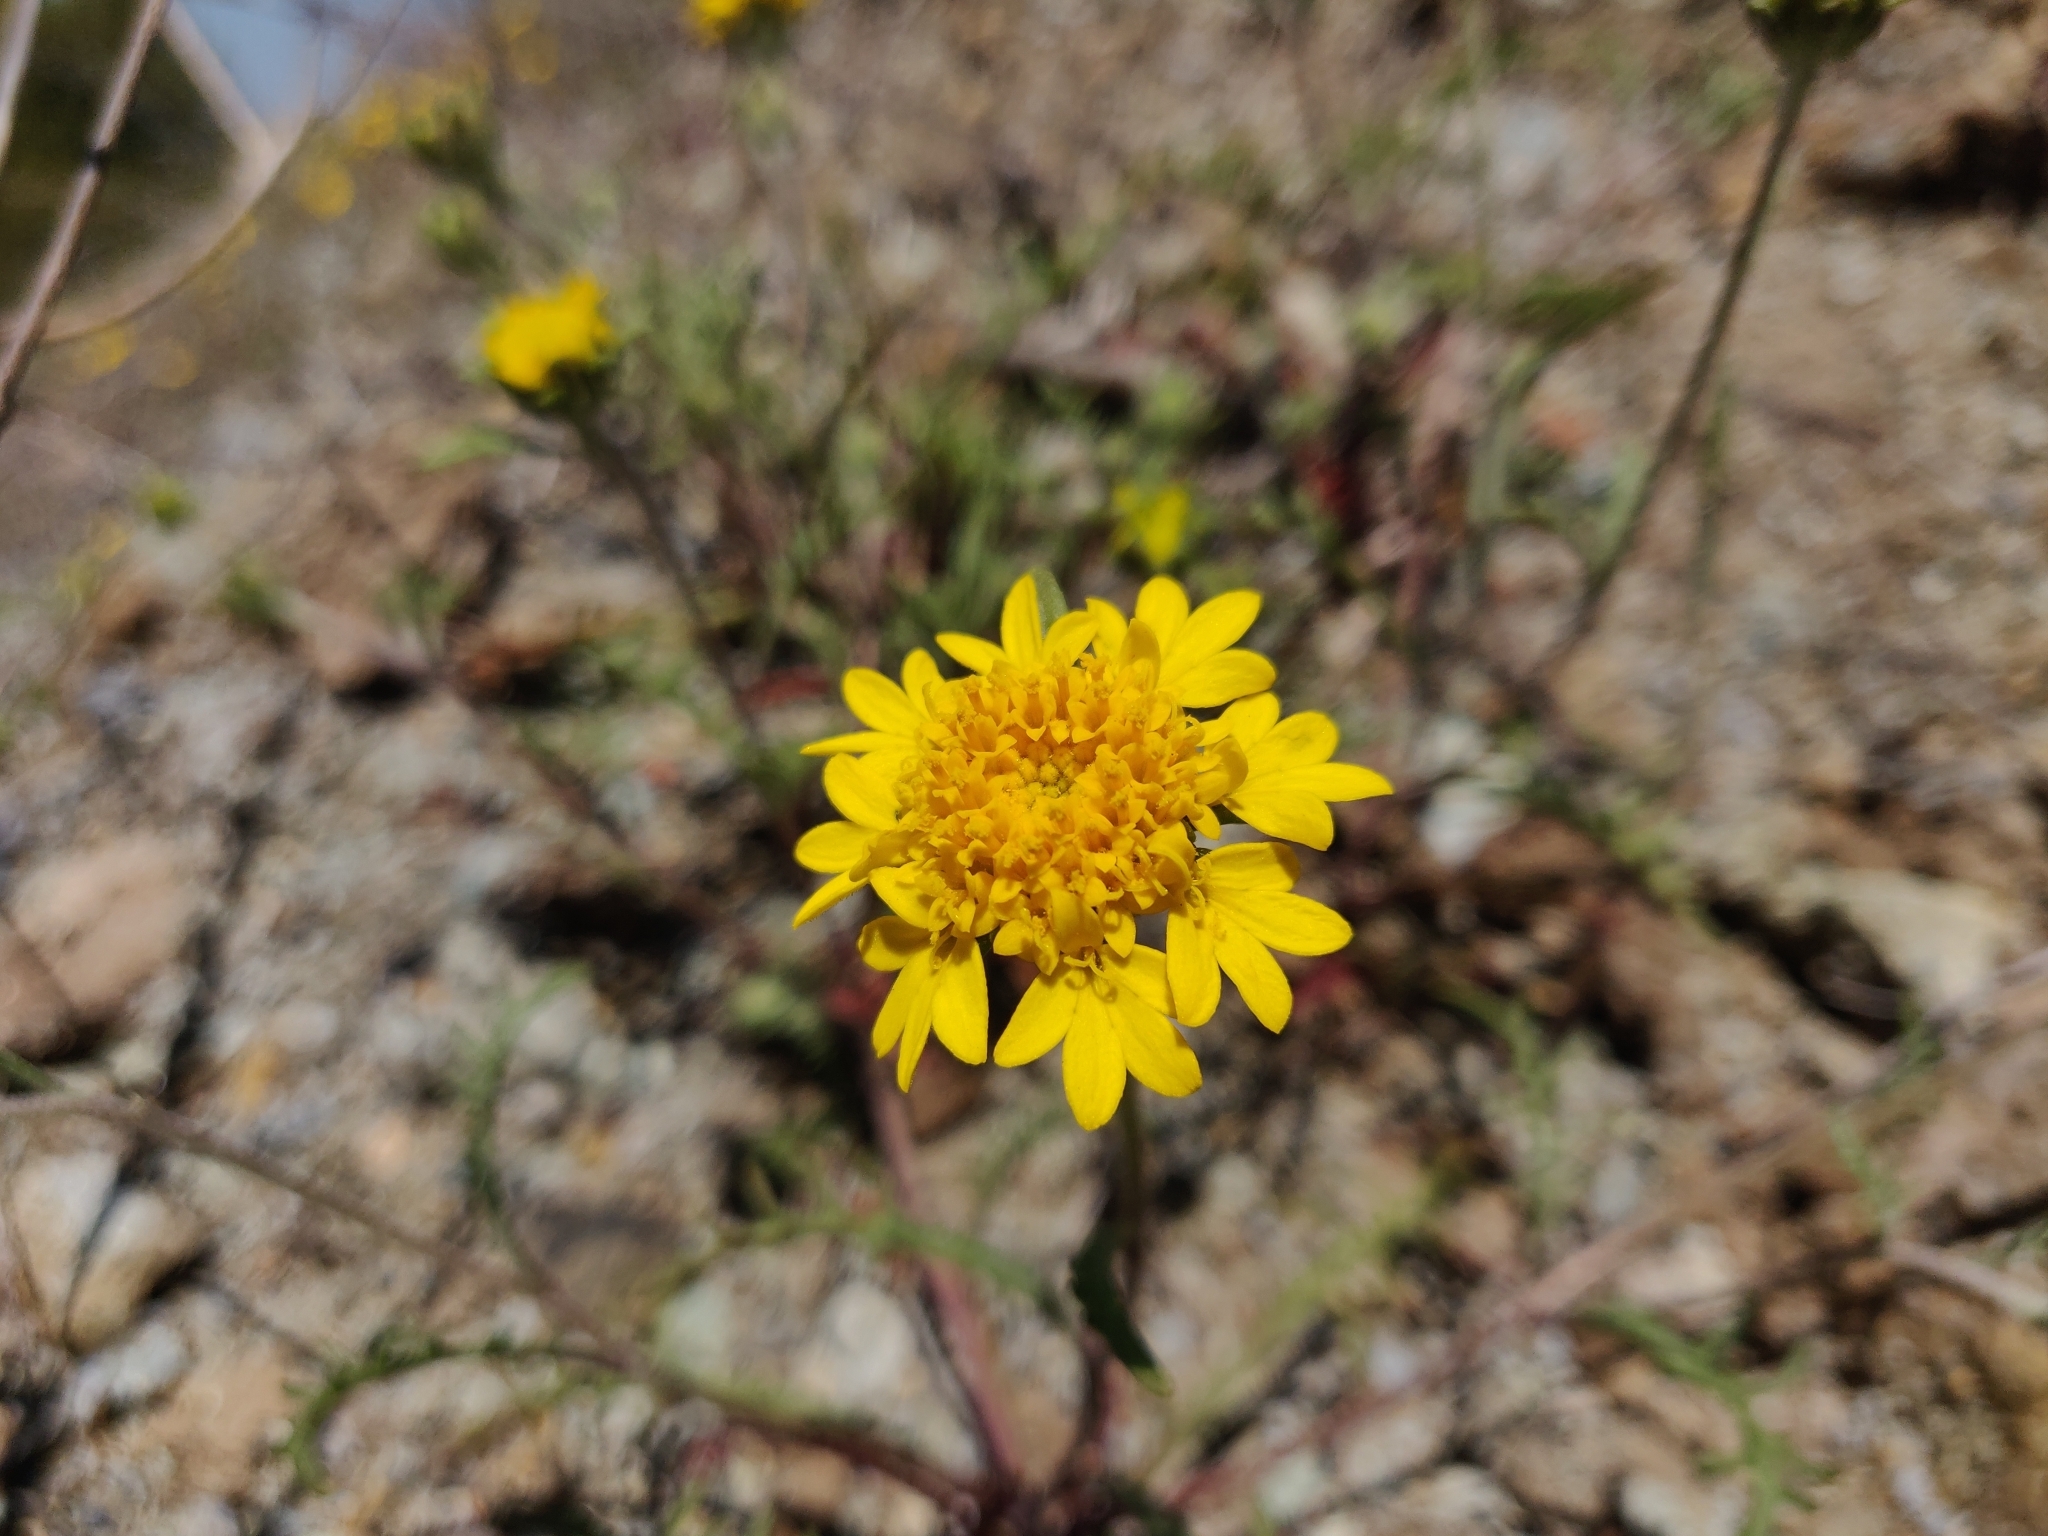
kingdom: Plantae
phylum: Tracheophyta
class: Magnoliopsida
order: Asterales
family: Asteraceae
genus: Chaenactis
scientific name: Chaenactis glabriuscula
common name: Yellow pincushion
